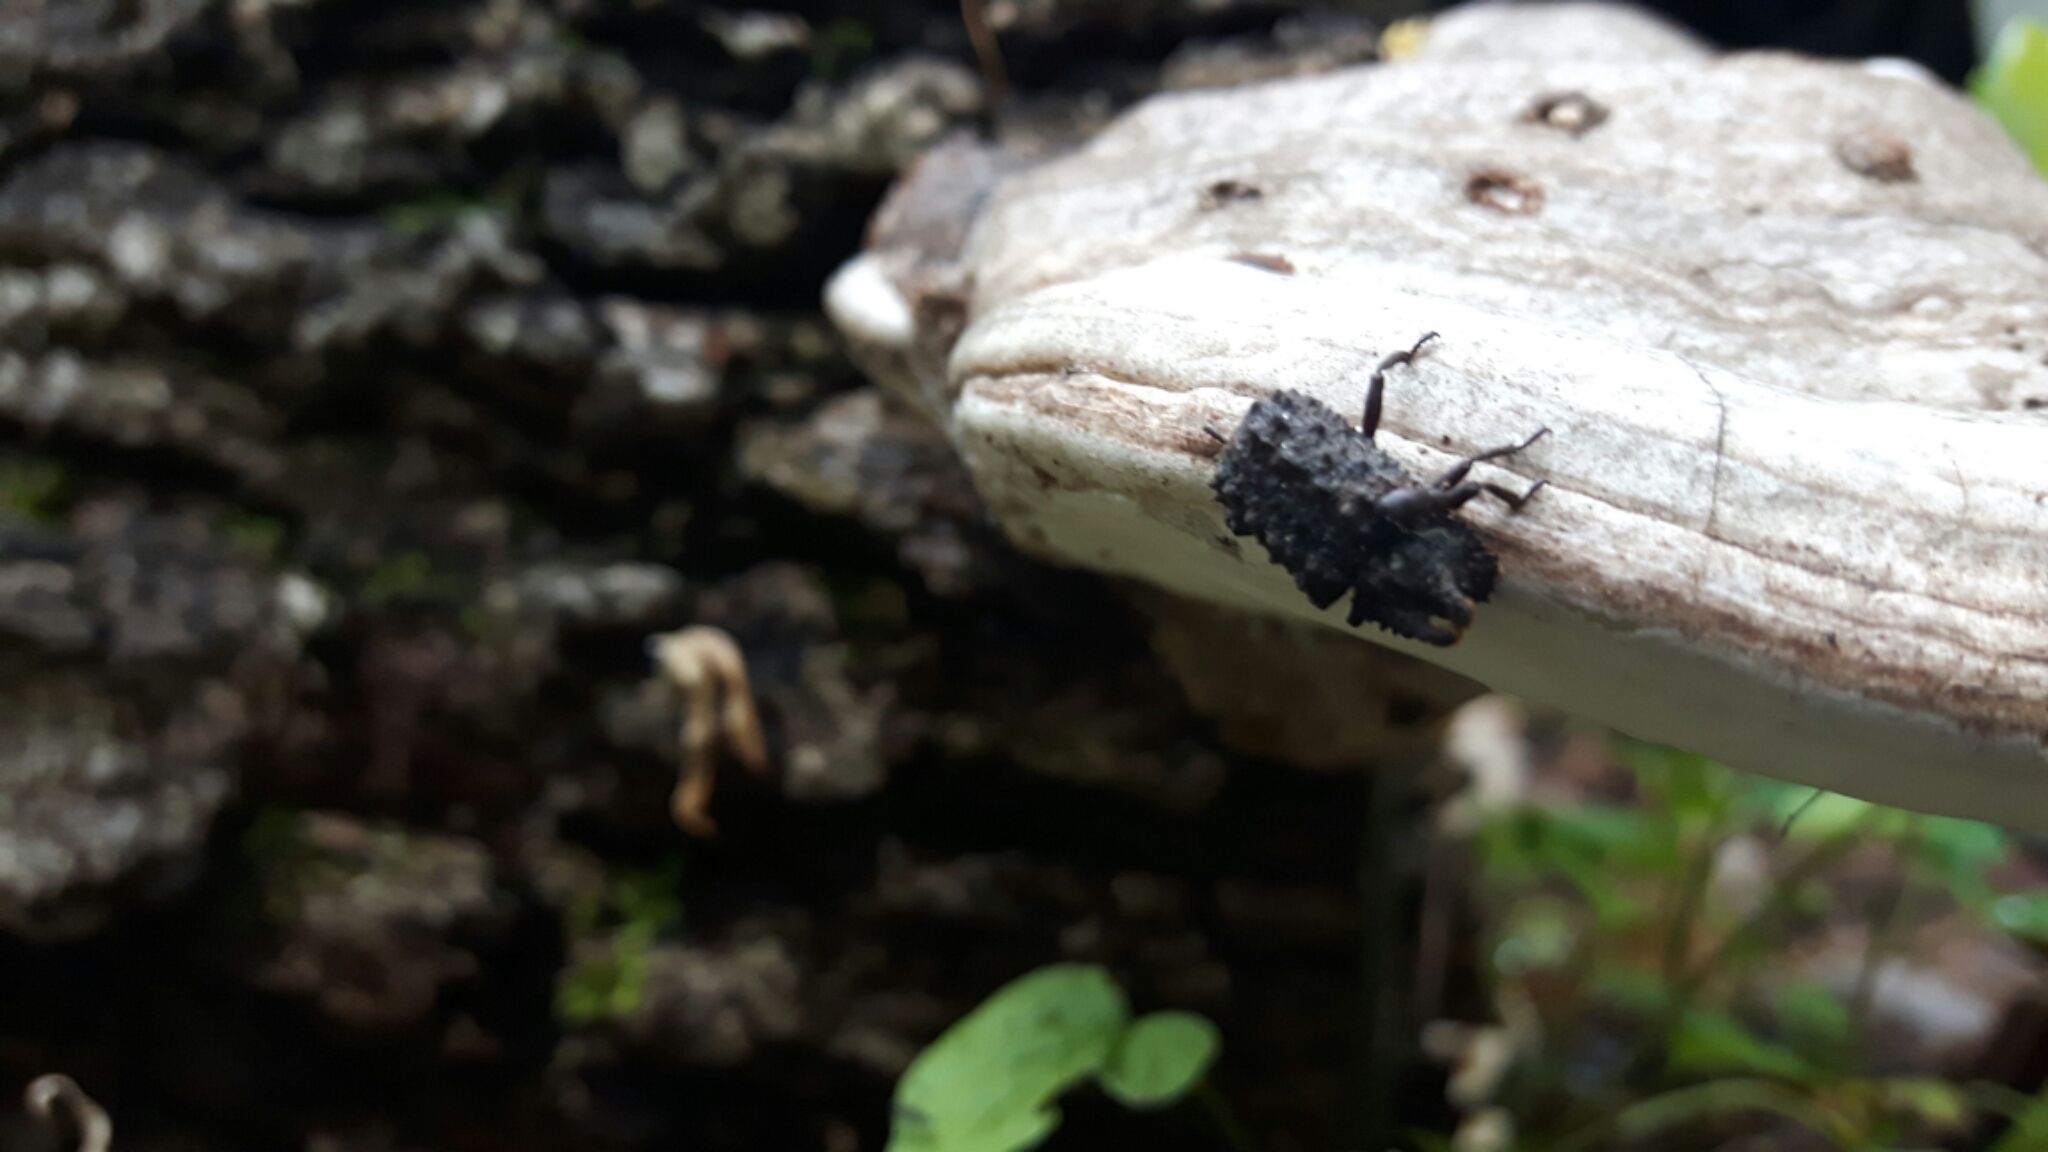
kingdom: Animalia
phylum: Arthropoda
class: Insecta
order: Coleoptera
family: Tenebrionidae
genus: Gnatocerus
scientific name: Gnatocerus cornutus
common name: Broad-horned flour beetle
